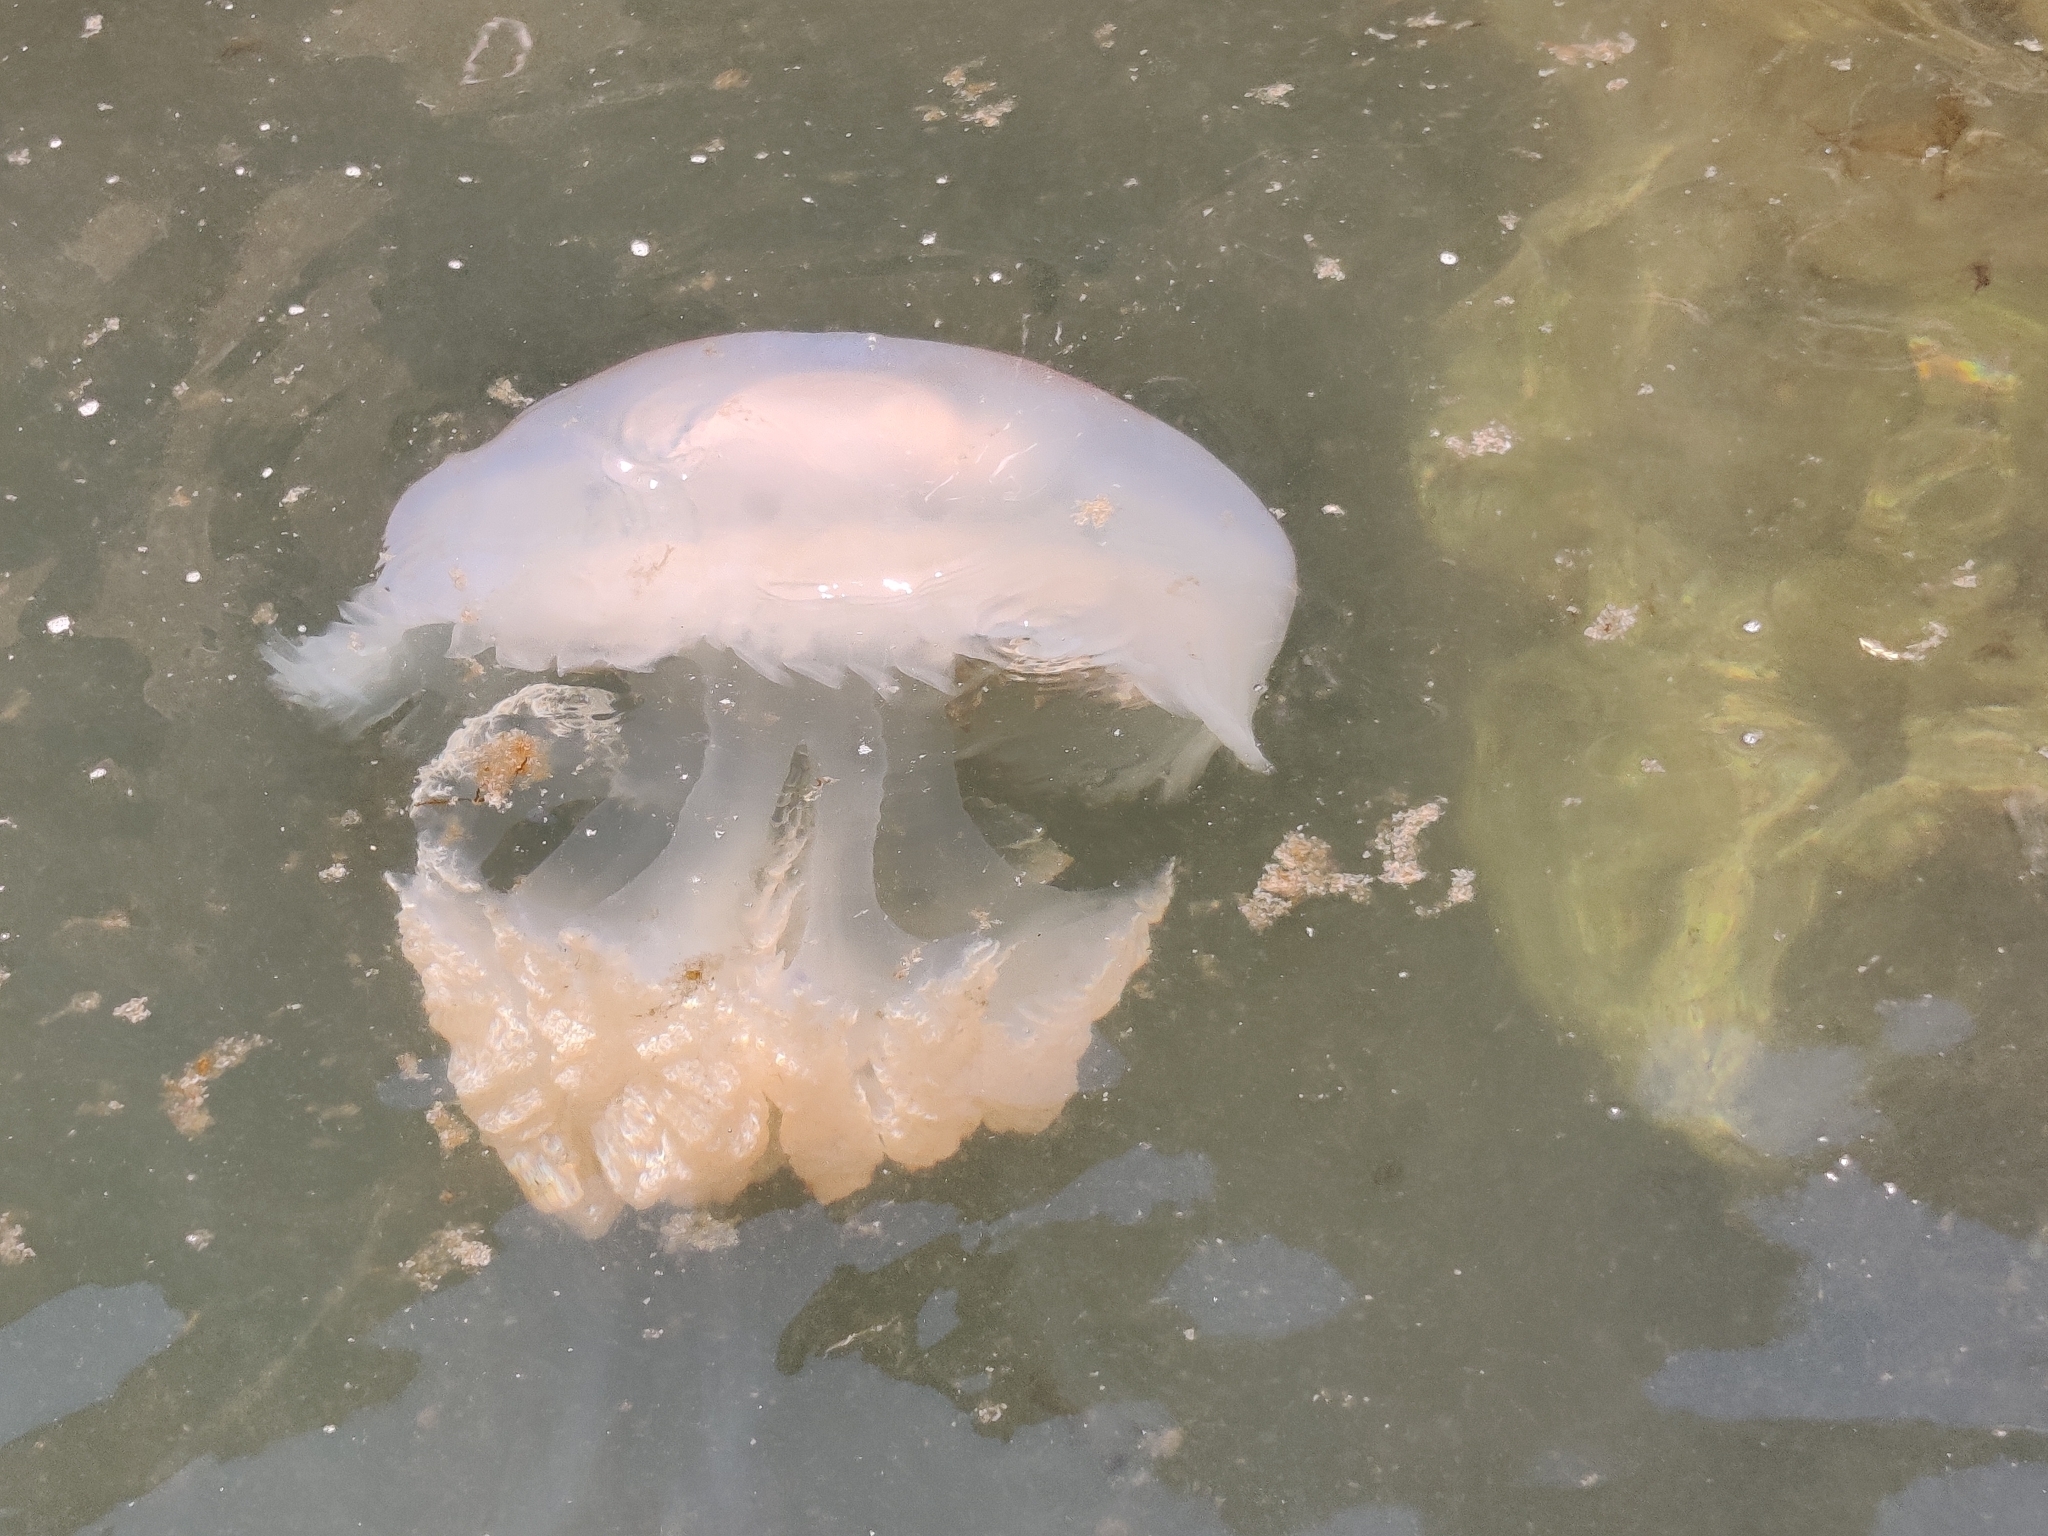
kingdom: Animalia
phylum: Cnidaria
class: Scyphozoa
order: Rhizostomeae
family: Rhizostomatidae
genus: Rhizostoma
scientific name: Rhizostoma luteum
